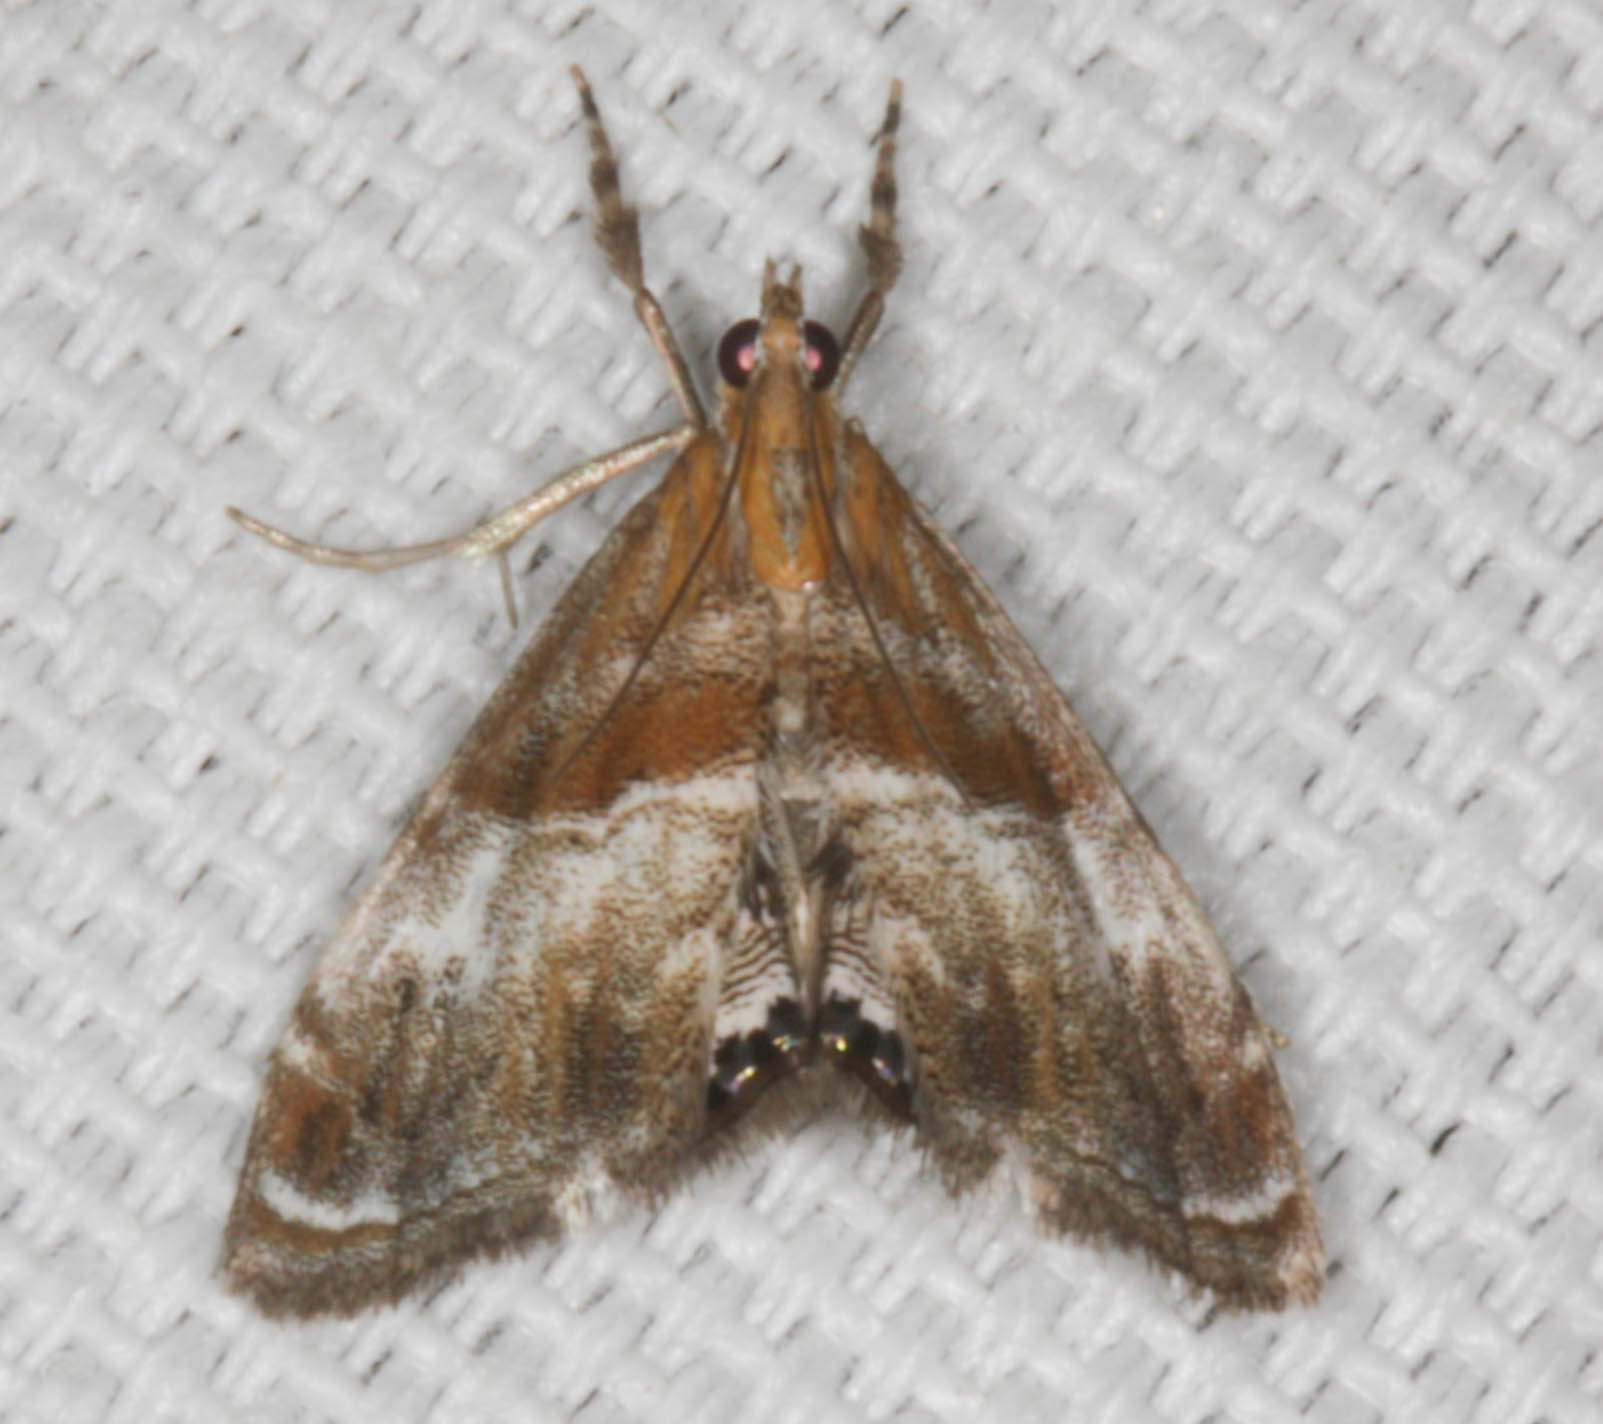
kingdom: Animalia
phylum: Arthropoda
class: Insecta
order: Lepidoptera
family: Crambidae
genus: Dicymolomia
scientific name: Dicymolomia metalliferalis
